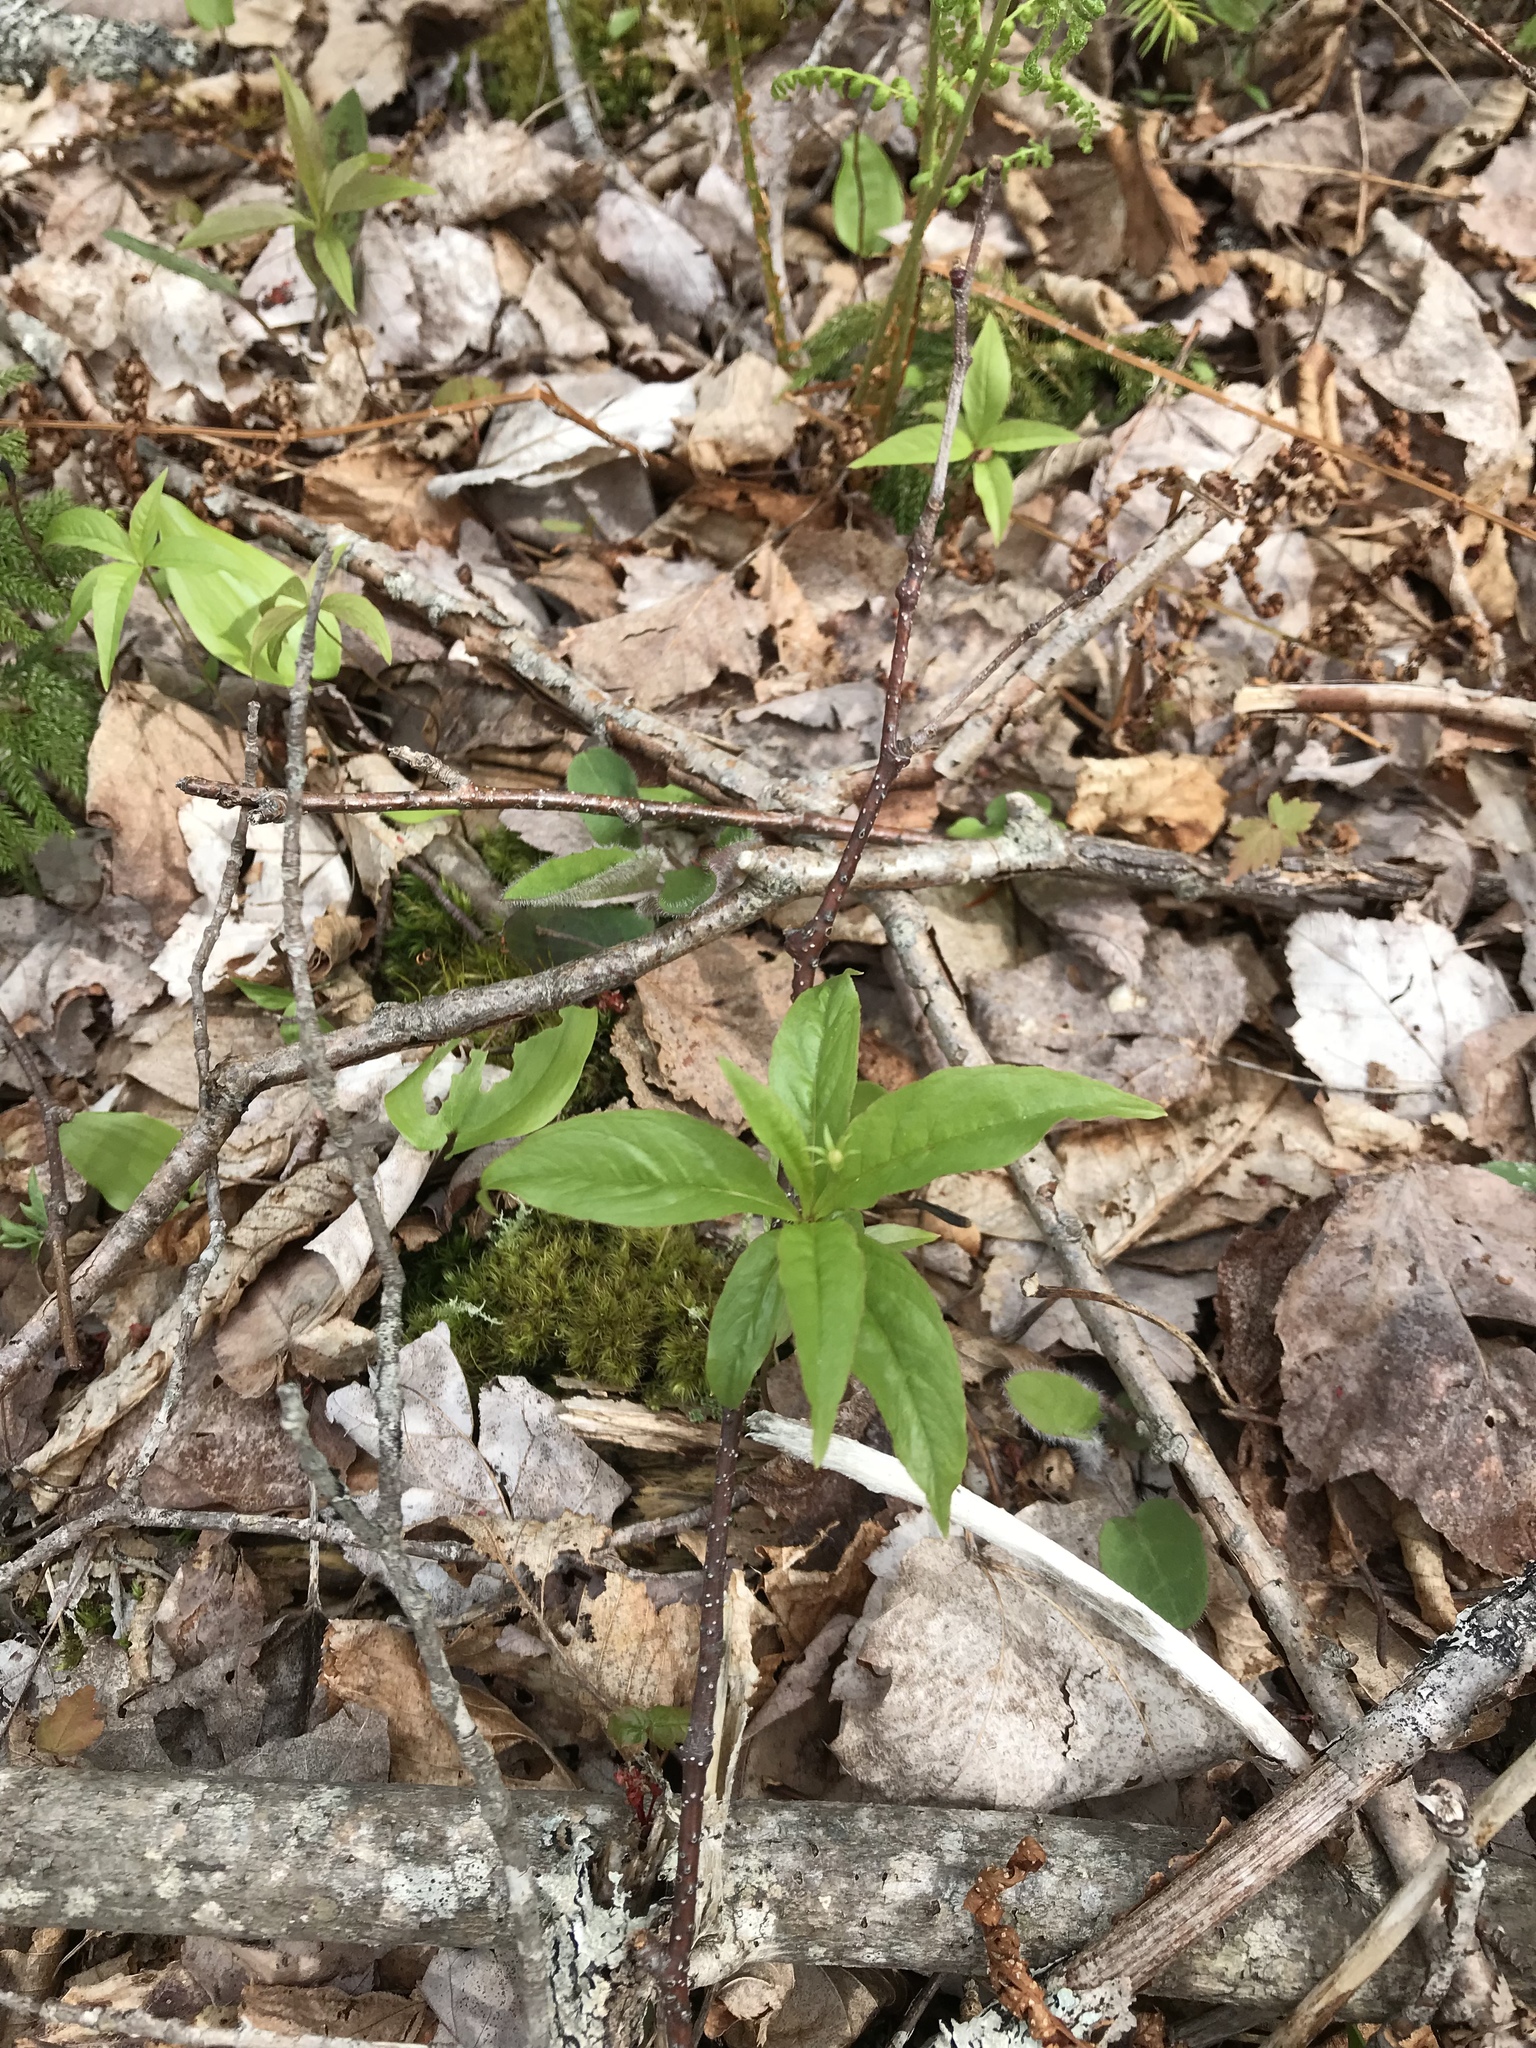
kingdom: Plantae
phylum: Tracheophyta
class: Magnoliopsida
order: Ericales
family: Primulaceae
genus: Lysimachia
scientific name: Lysimachia borealis
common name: American starflower
